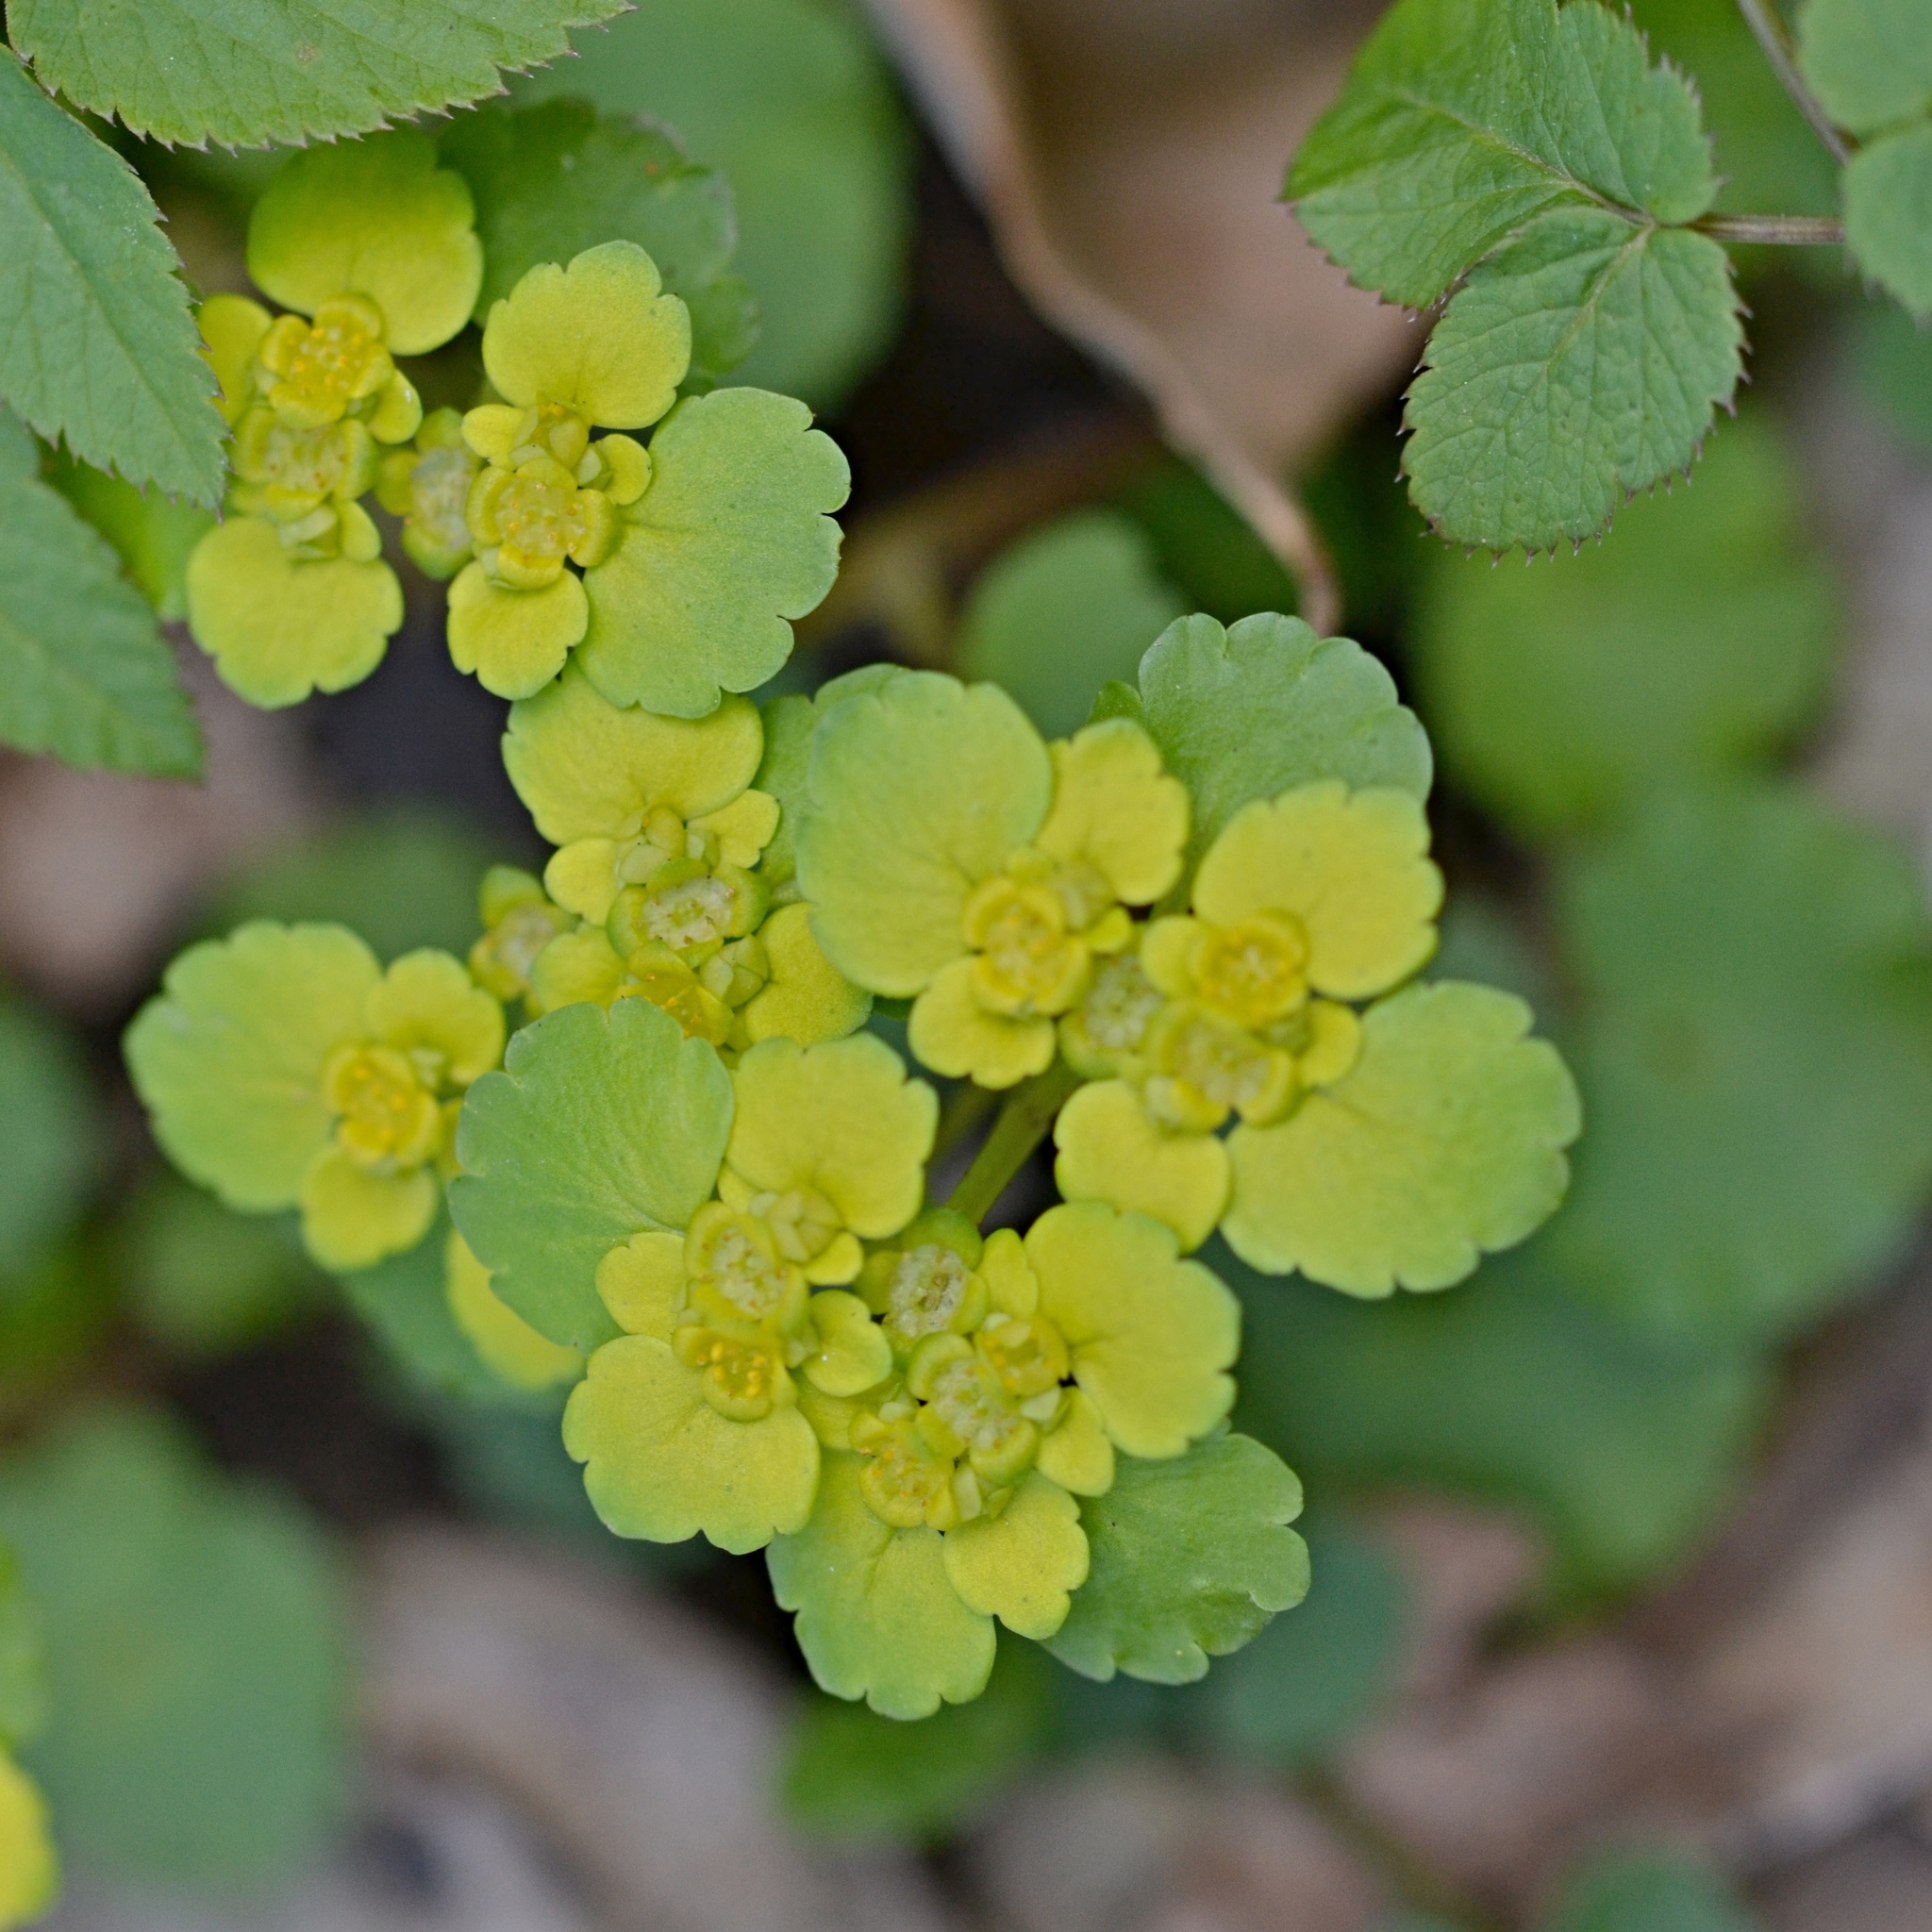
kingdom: Plantae
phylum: Tracheophyta
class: Magnoliopsida
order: Saxifragales
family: Saxifragaceae
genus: Chrysosplenium
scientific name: Chrysosplenium alternifolium
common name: Alternate-leaved golden-saxifrage
